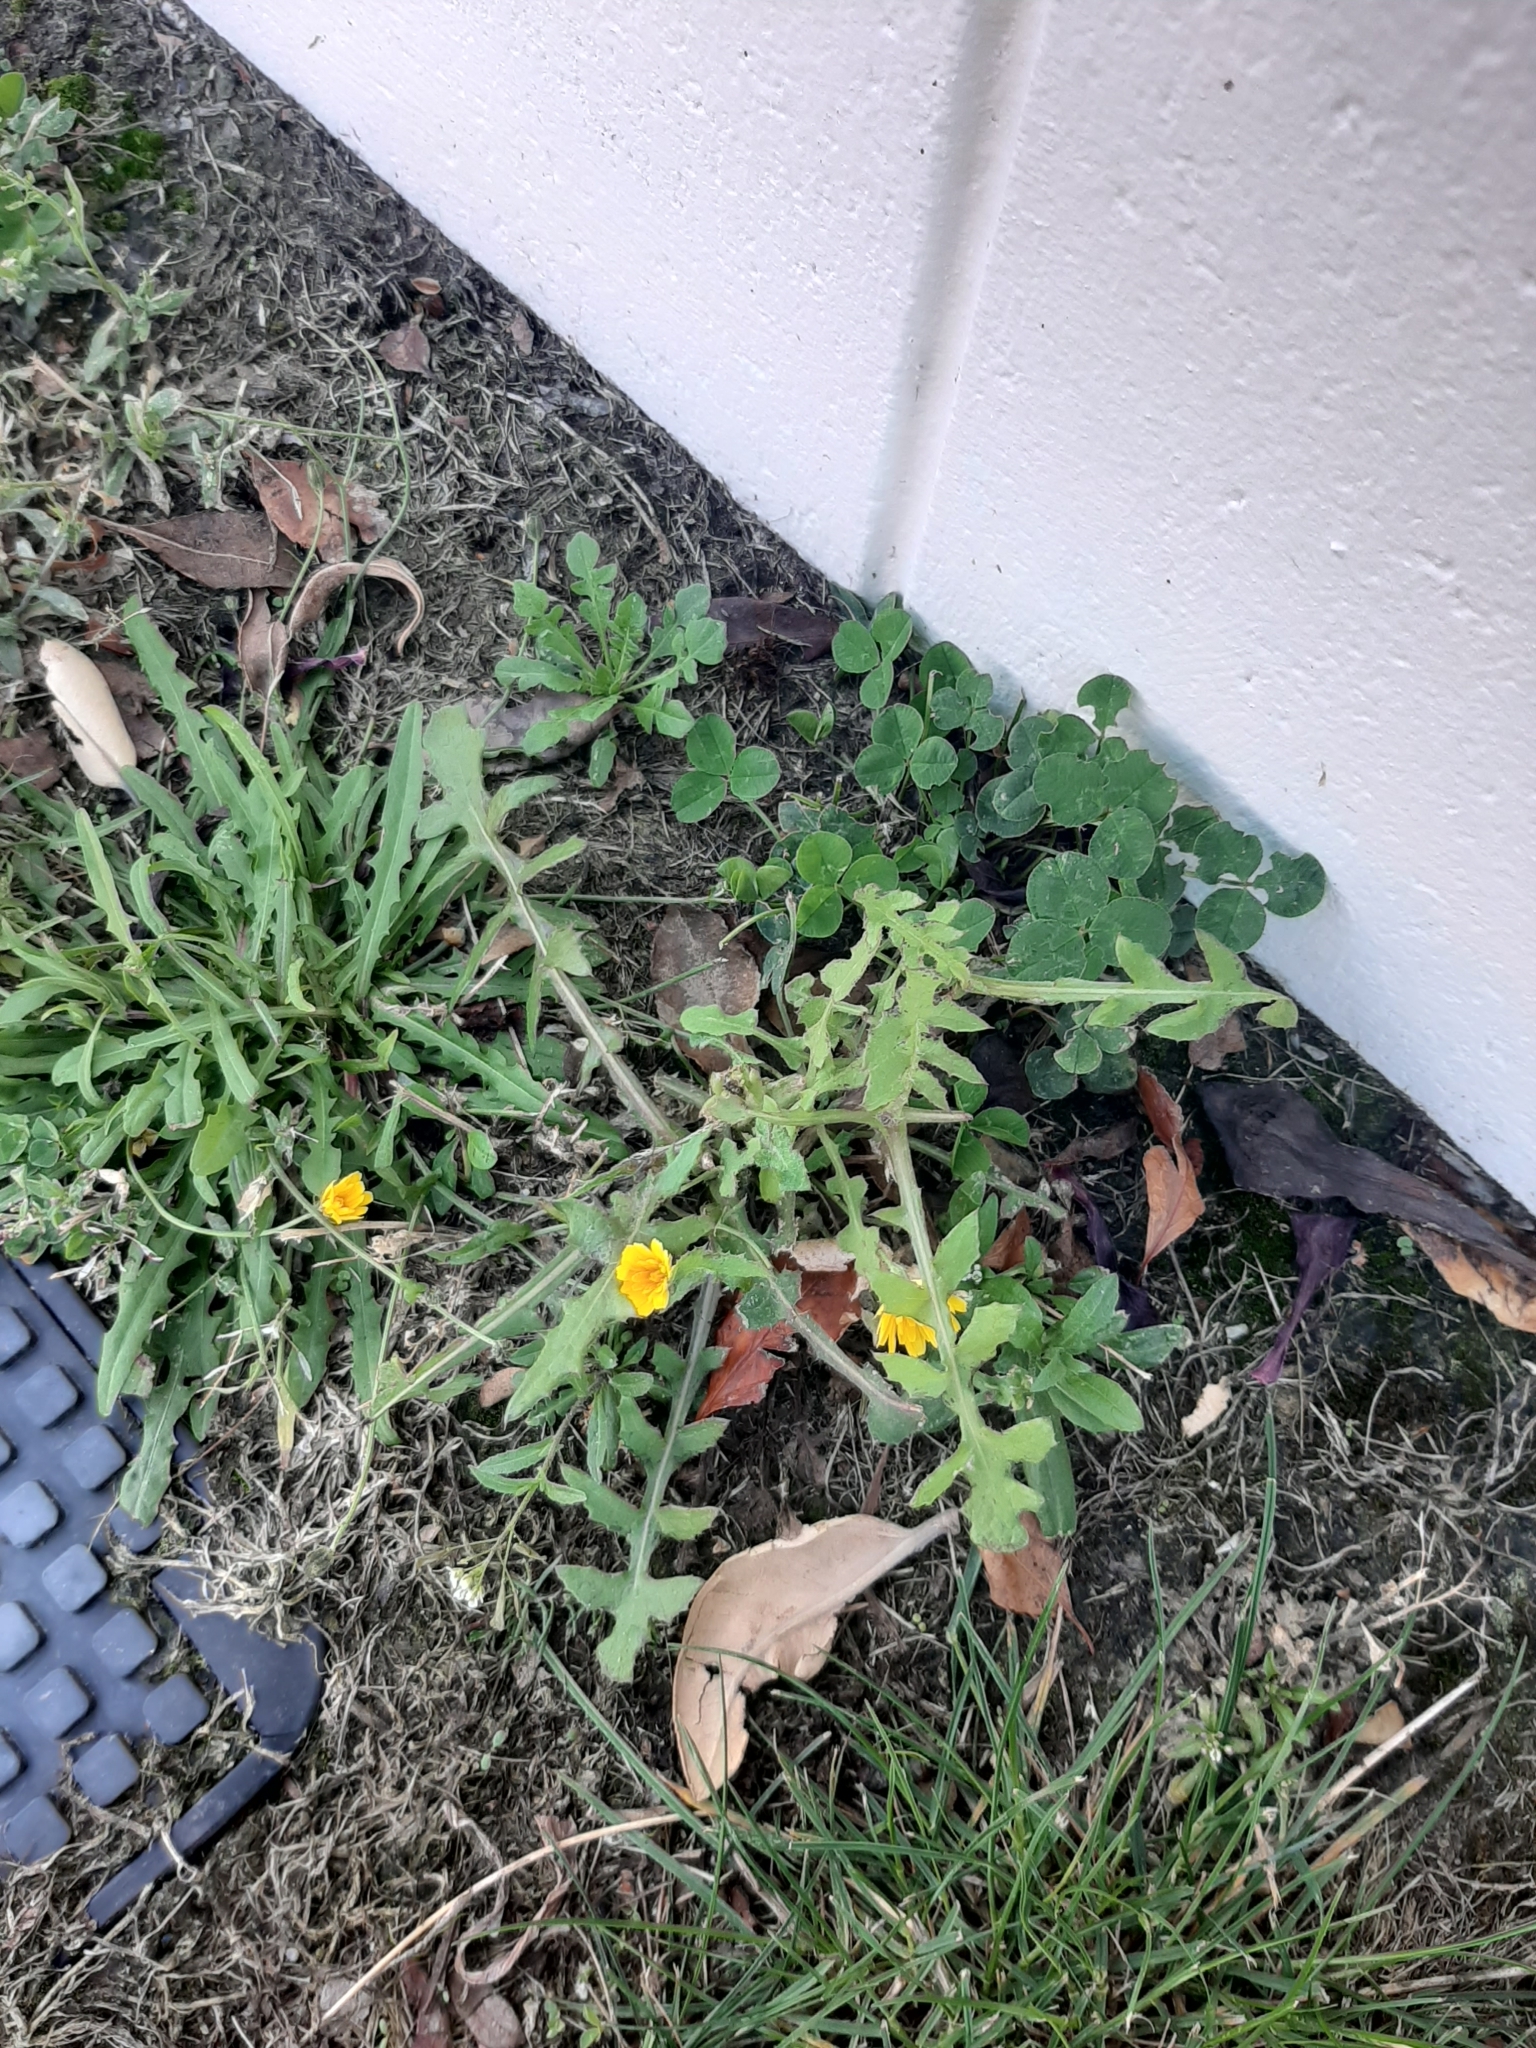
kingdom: Plantae
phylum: Tracheophyta
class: Magnoliopsida
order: Asterales
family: Asteraceae
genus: Sonchus
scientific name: Sonchus oleraceus
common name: Common sowthistle
